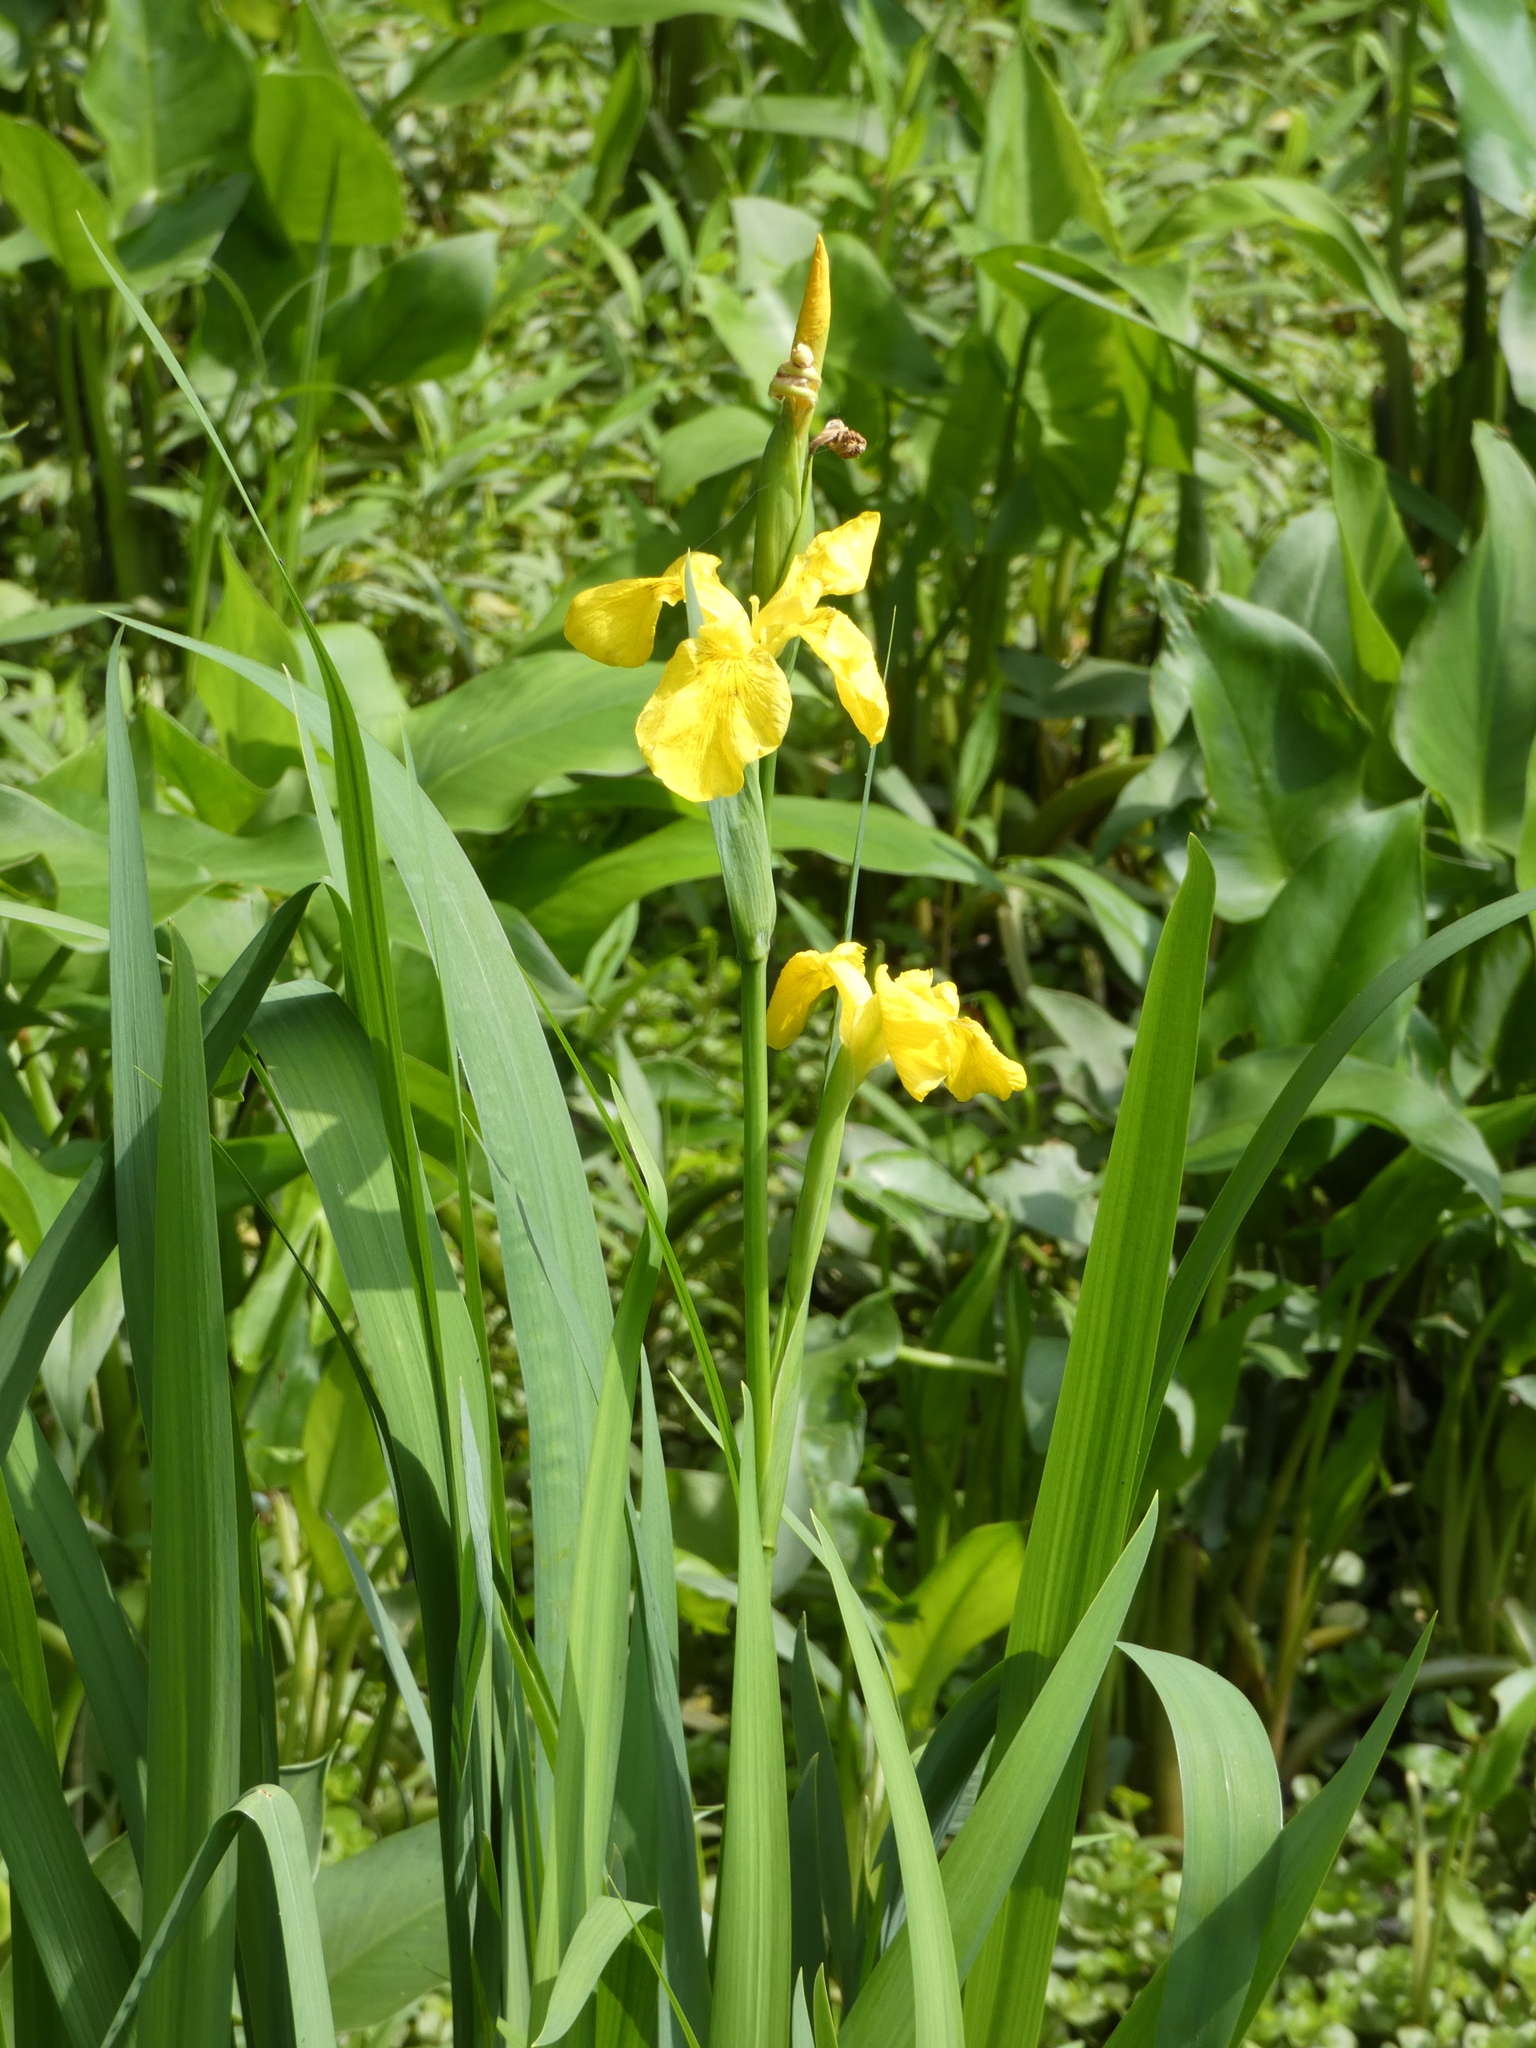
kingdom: Plantae
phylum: Tracheophyta
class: Liliopsida
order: Asparagales
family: Iridaceae
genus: Iris
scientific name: Iris pseudacorus
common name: Yellow flag
